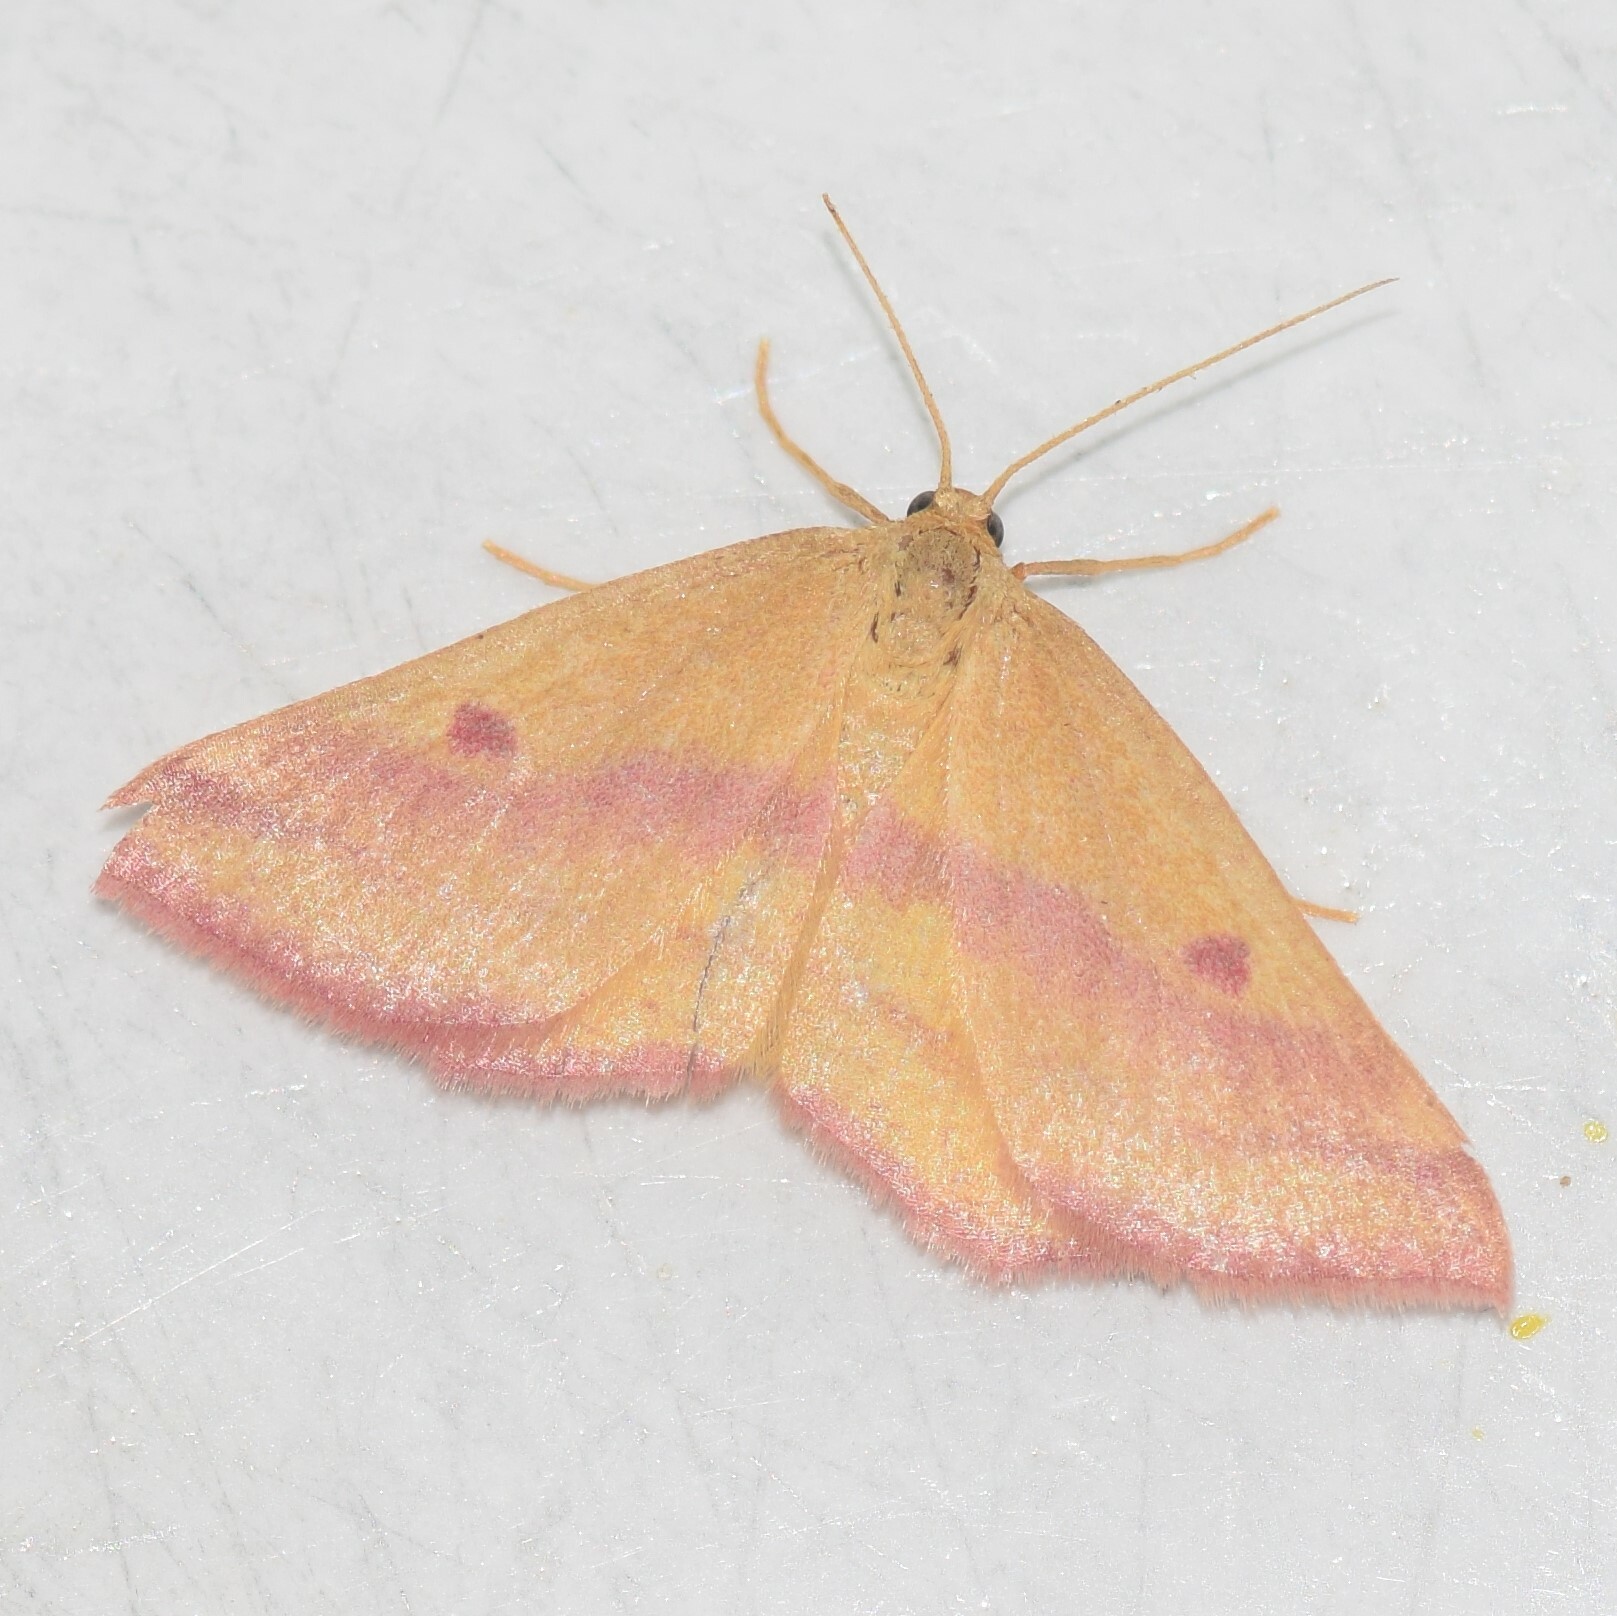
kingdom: Animalia
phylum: Arthropoda
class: Insecta
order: Lepidoptera
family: Geometridae
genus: Haematopis
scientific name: Haematopis grataria
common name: Chickweed geometer
